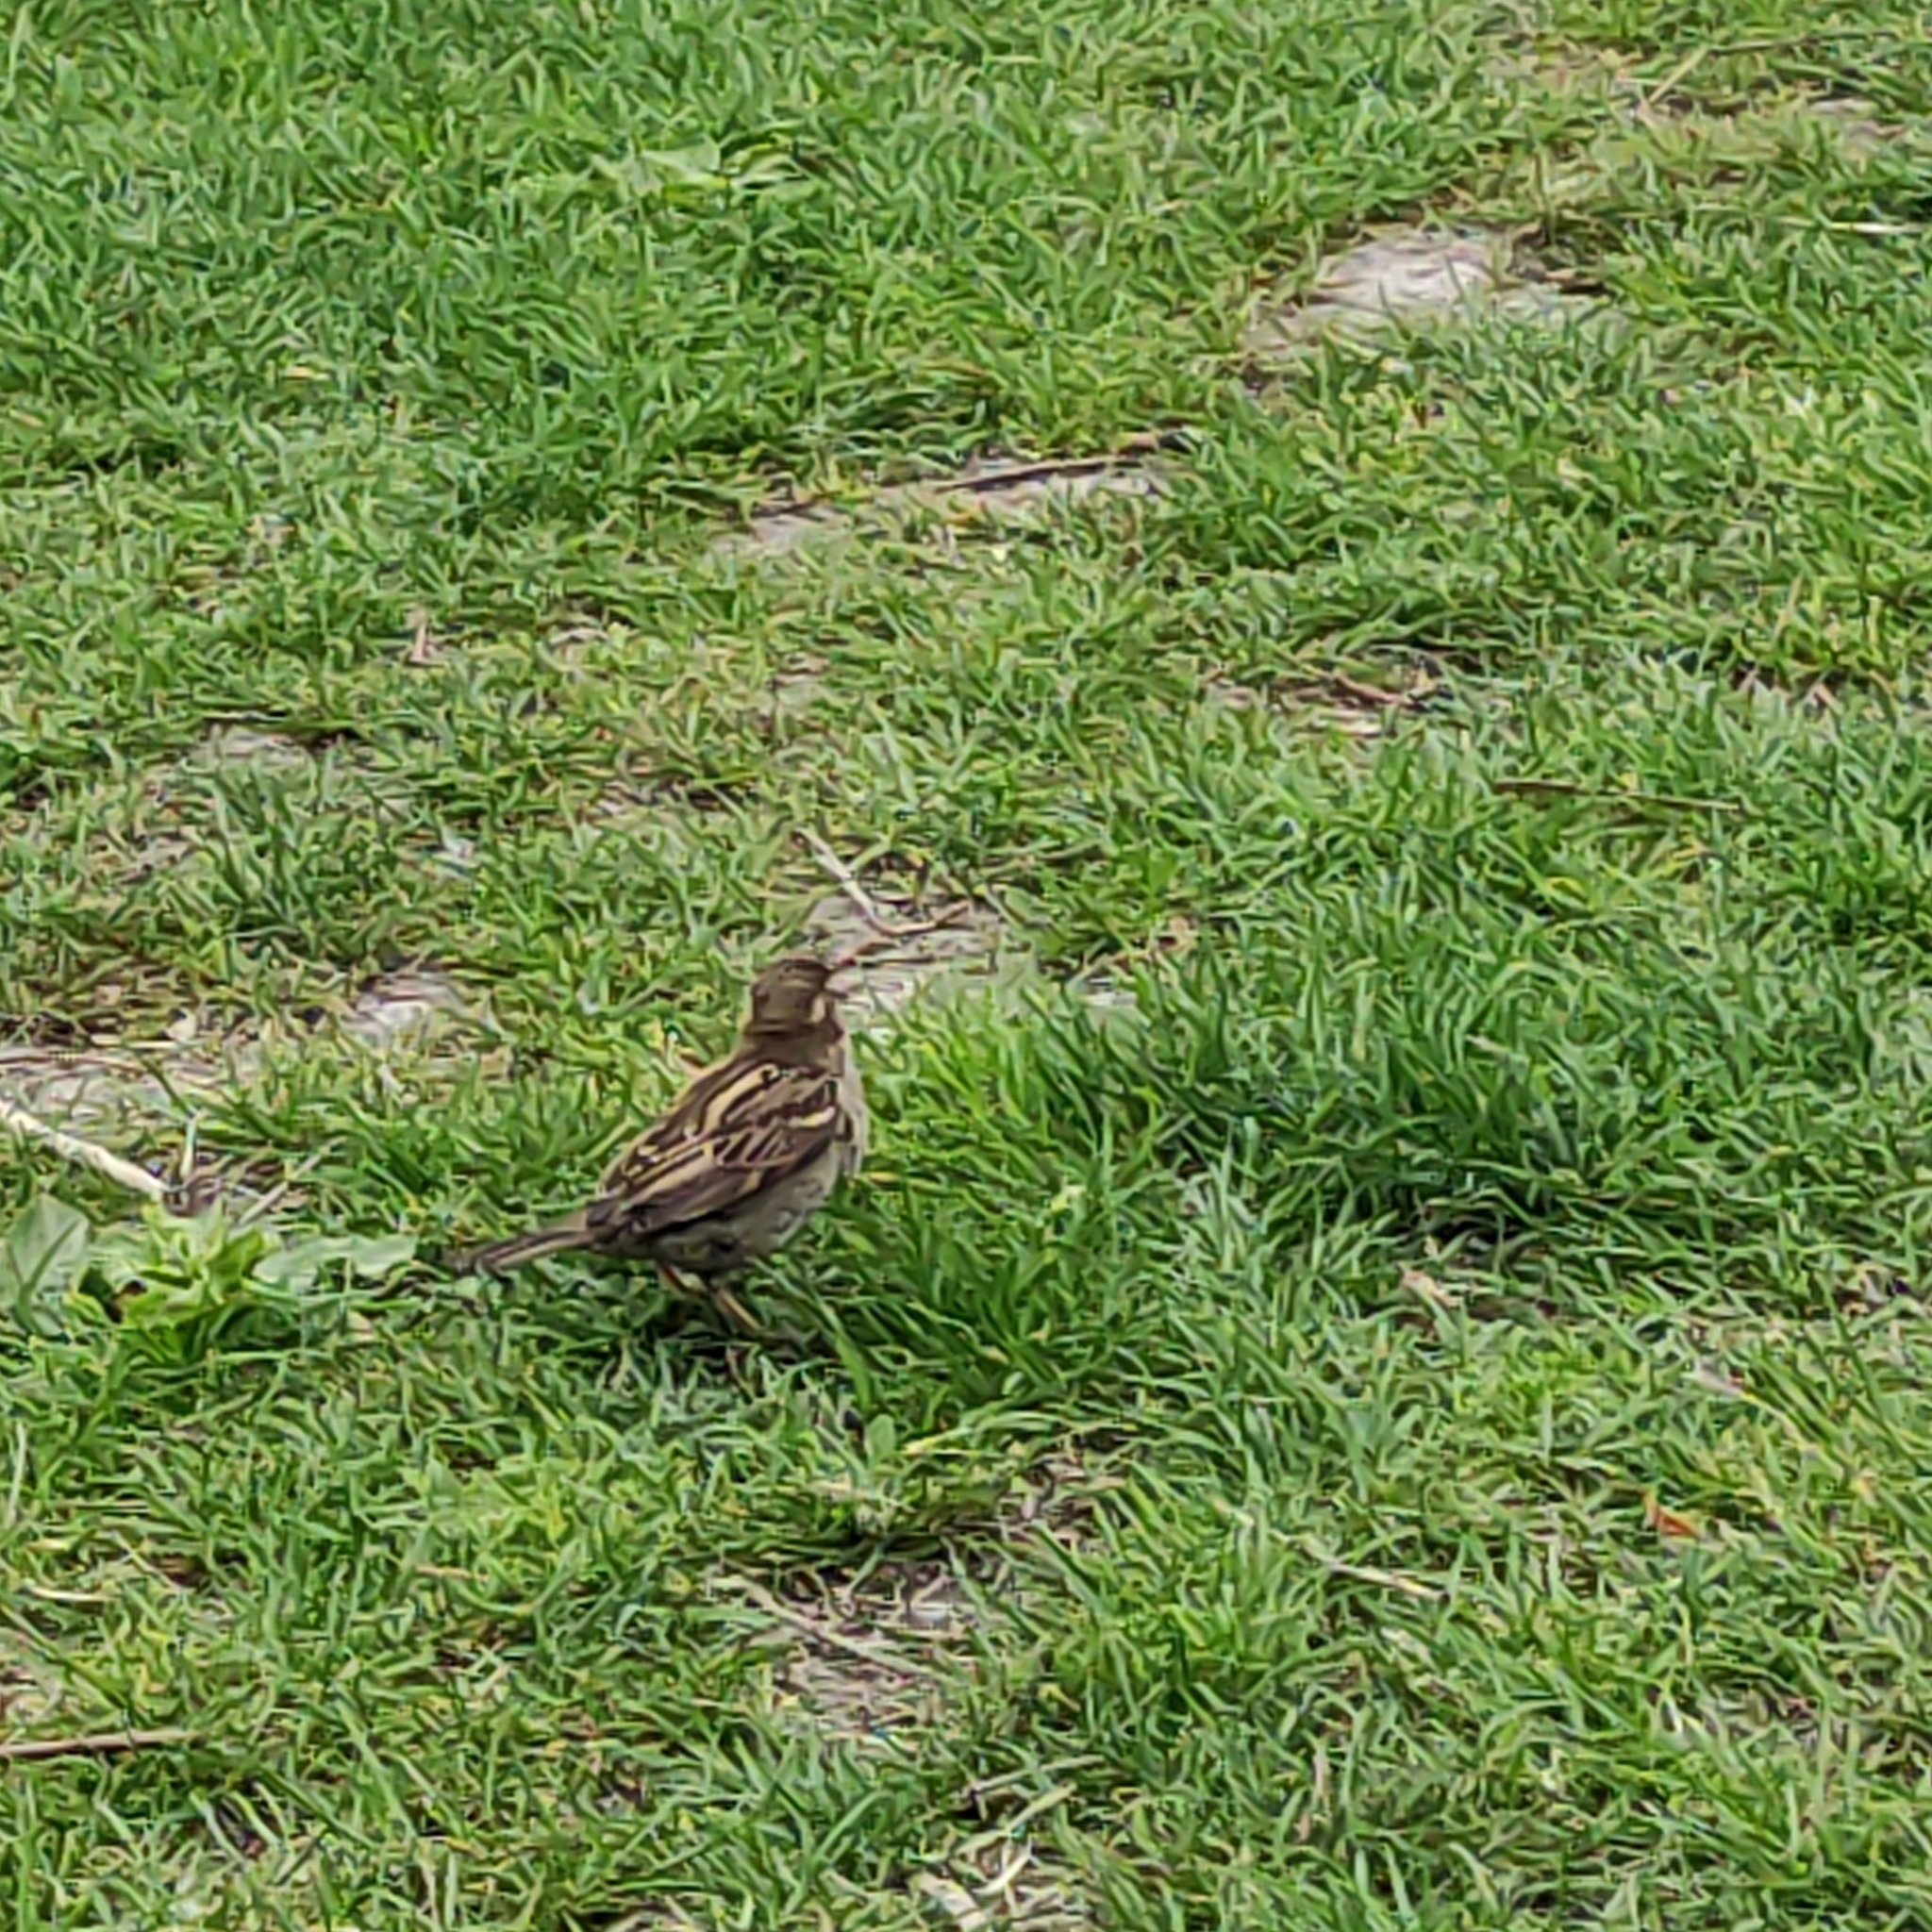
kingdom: Animalia
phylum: Chordata
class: Aves
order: Passeriformes
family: Passeridae
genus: Passer
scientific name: Passer domesticus
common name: House sparrow
